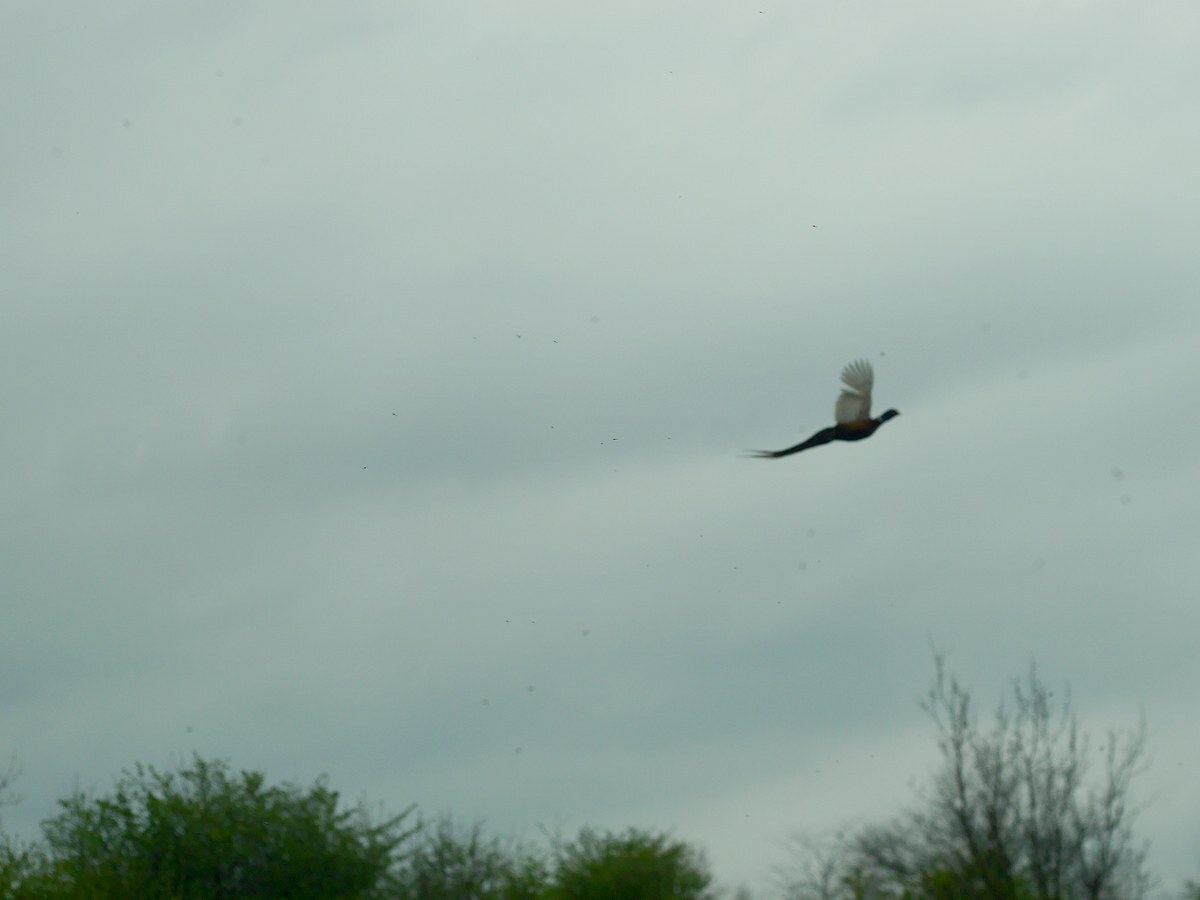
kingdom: Animalia
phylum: Chordata
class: Aves
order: Galliformes
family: Phasianidae
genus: Phasianus
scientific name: Phasianus colchicus
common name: Common pheasant
